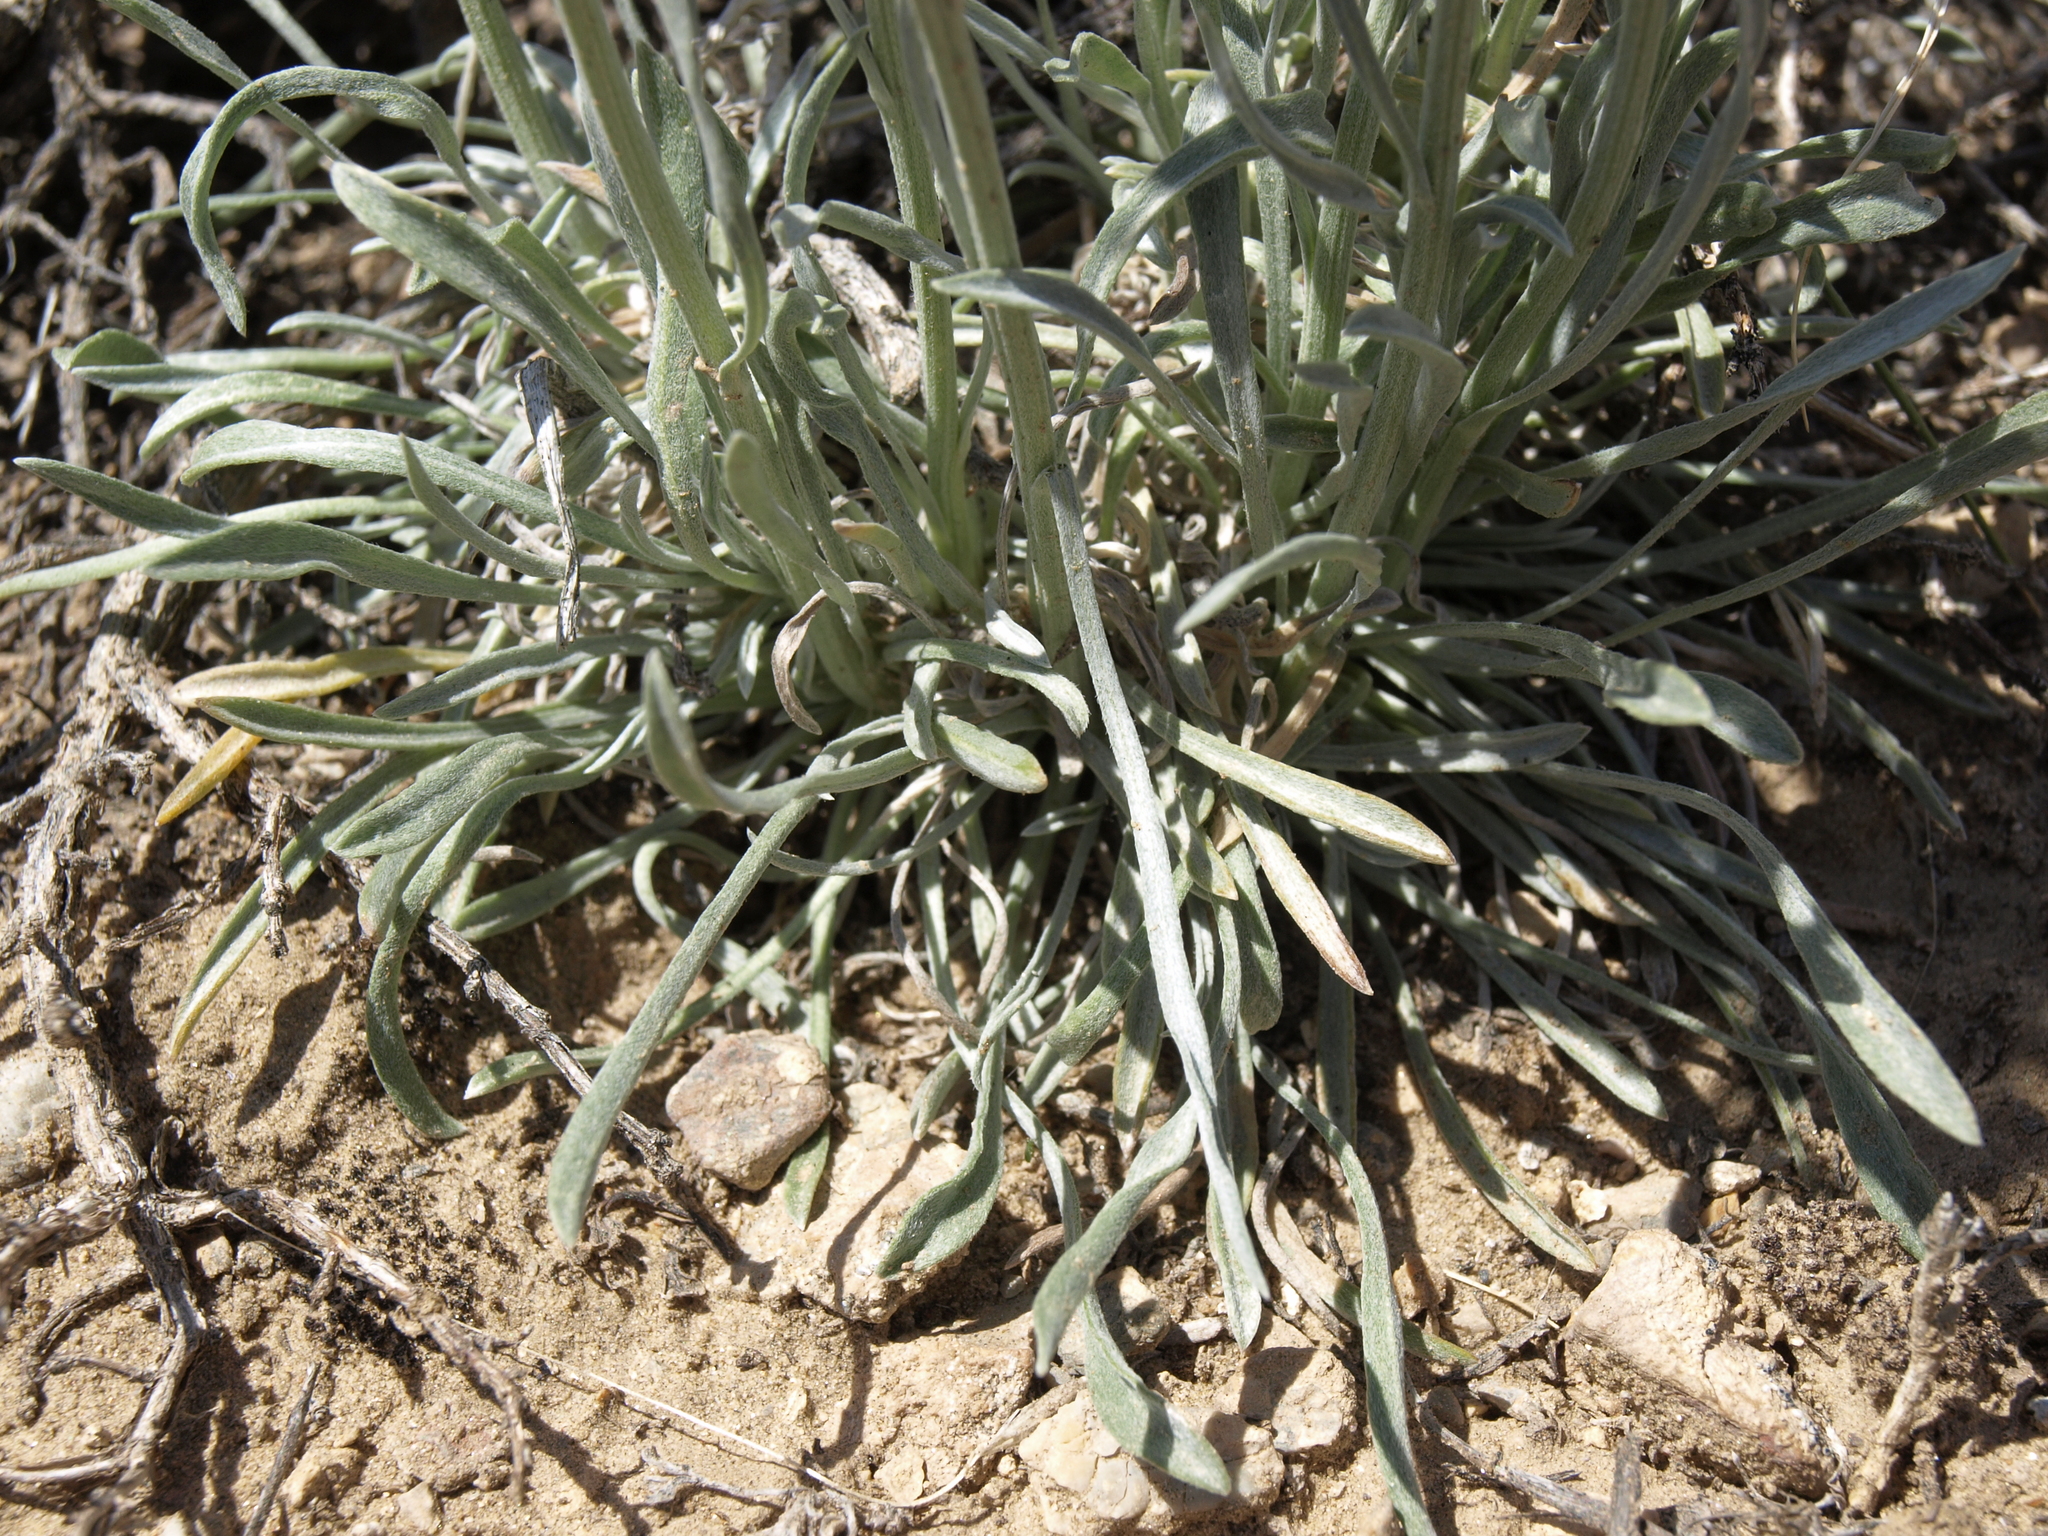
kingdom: Plantae
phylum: Tracheophyta
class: Magnoliopsida
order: Asterales
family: Asteraceae
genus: Erigeron
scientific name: Erigeron argentatus
